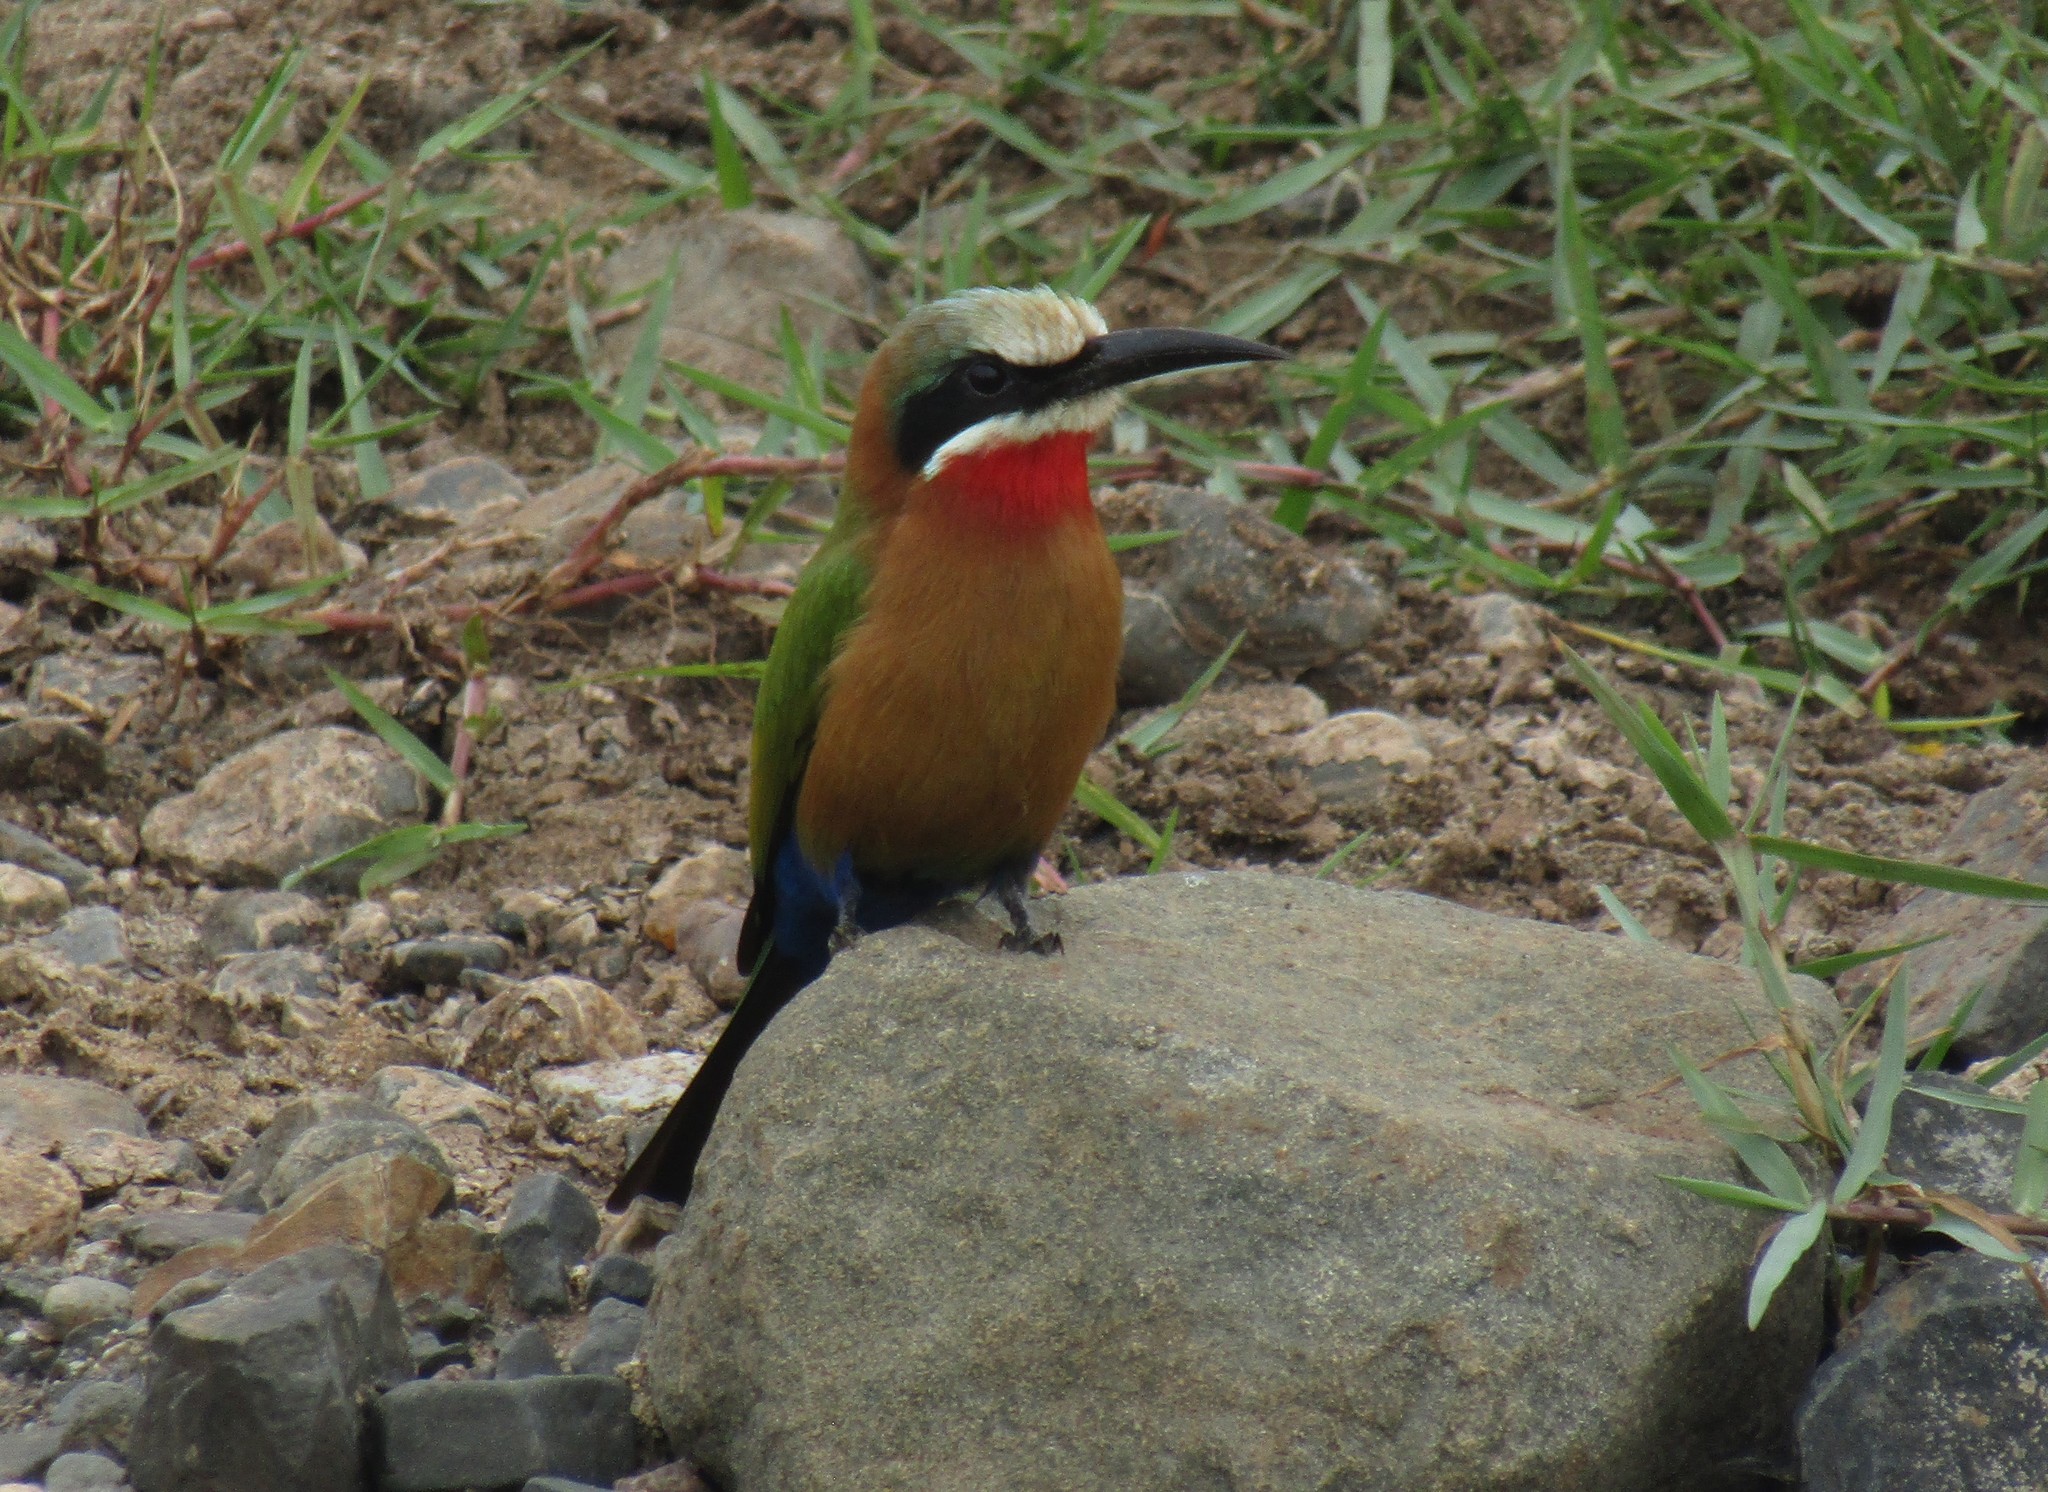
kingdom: Animalia
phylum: Chordata
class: Aves
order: Coraciiformes
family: Meropidae
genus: Merops
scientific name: Merops bullockoides
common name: White-fronted bee-eater
